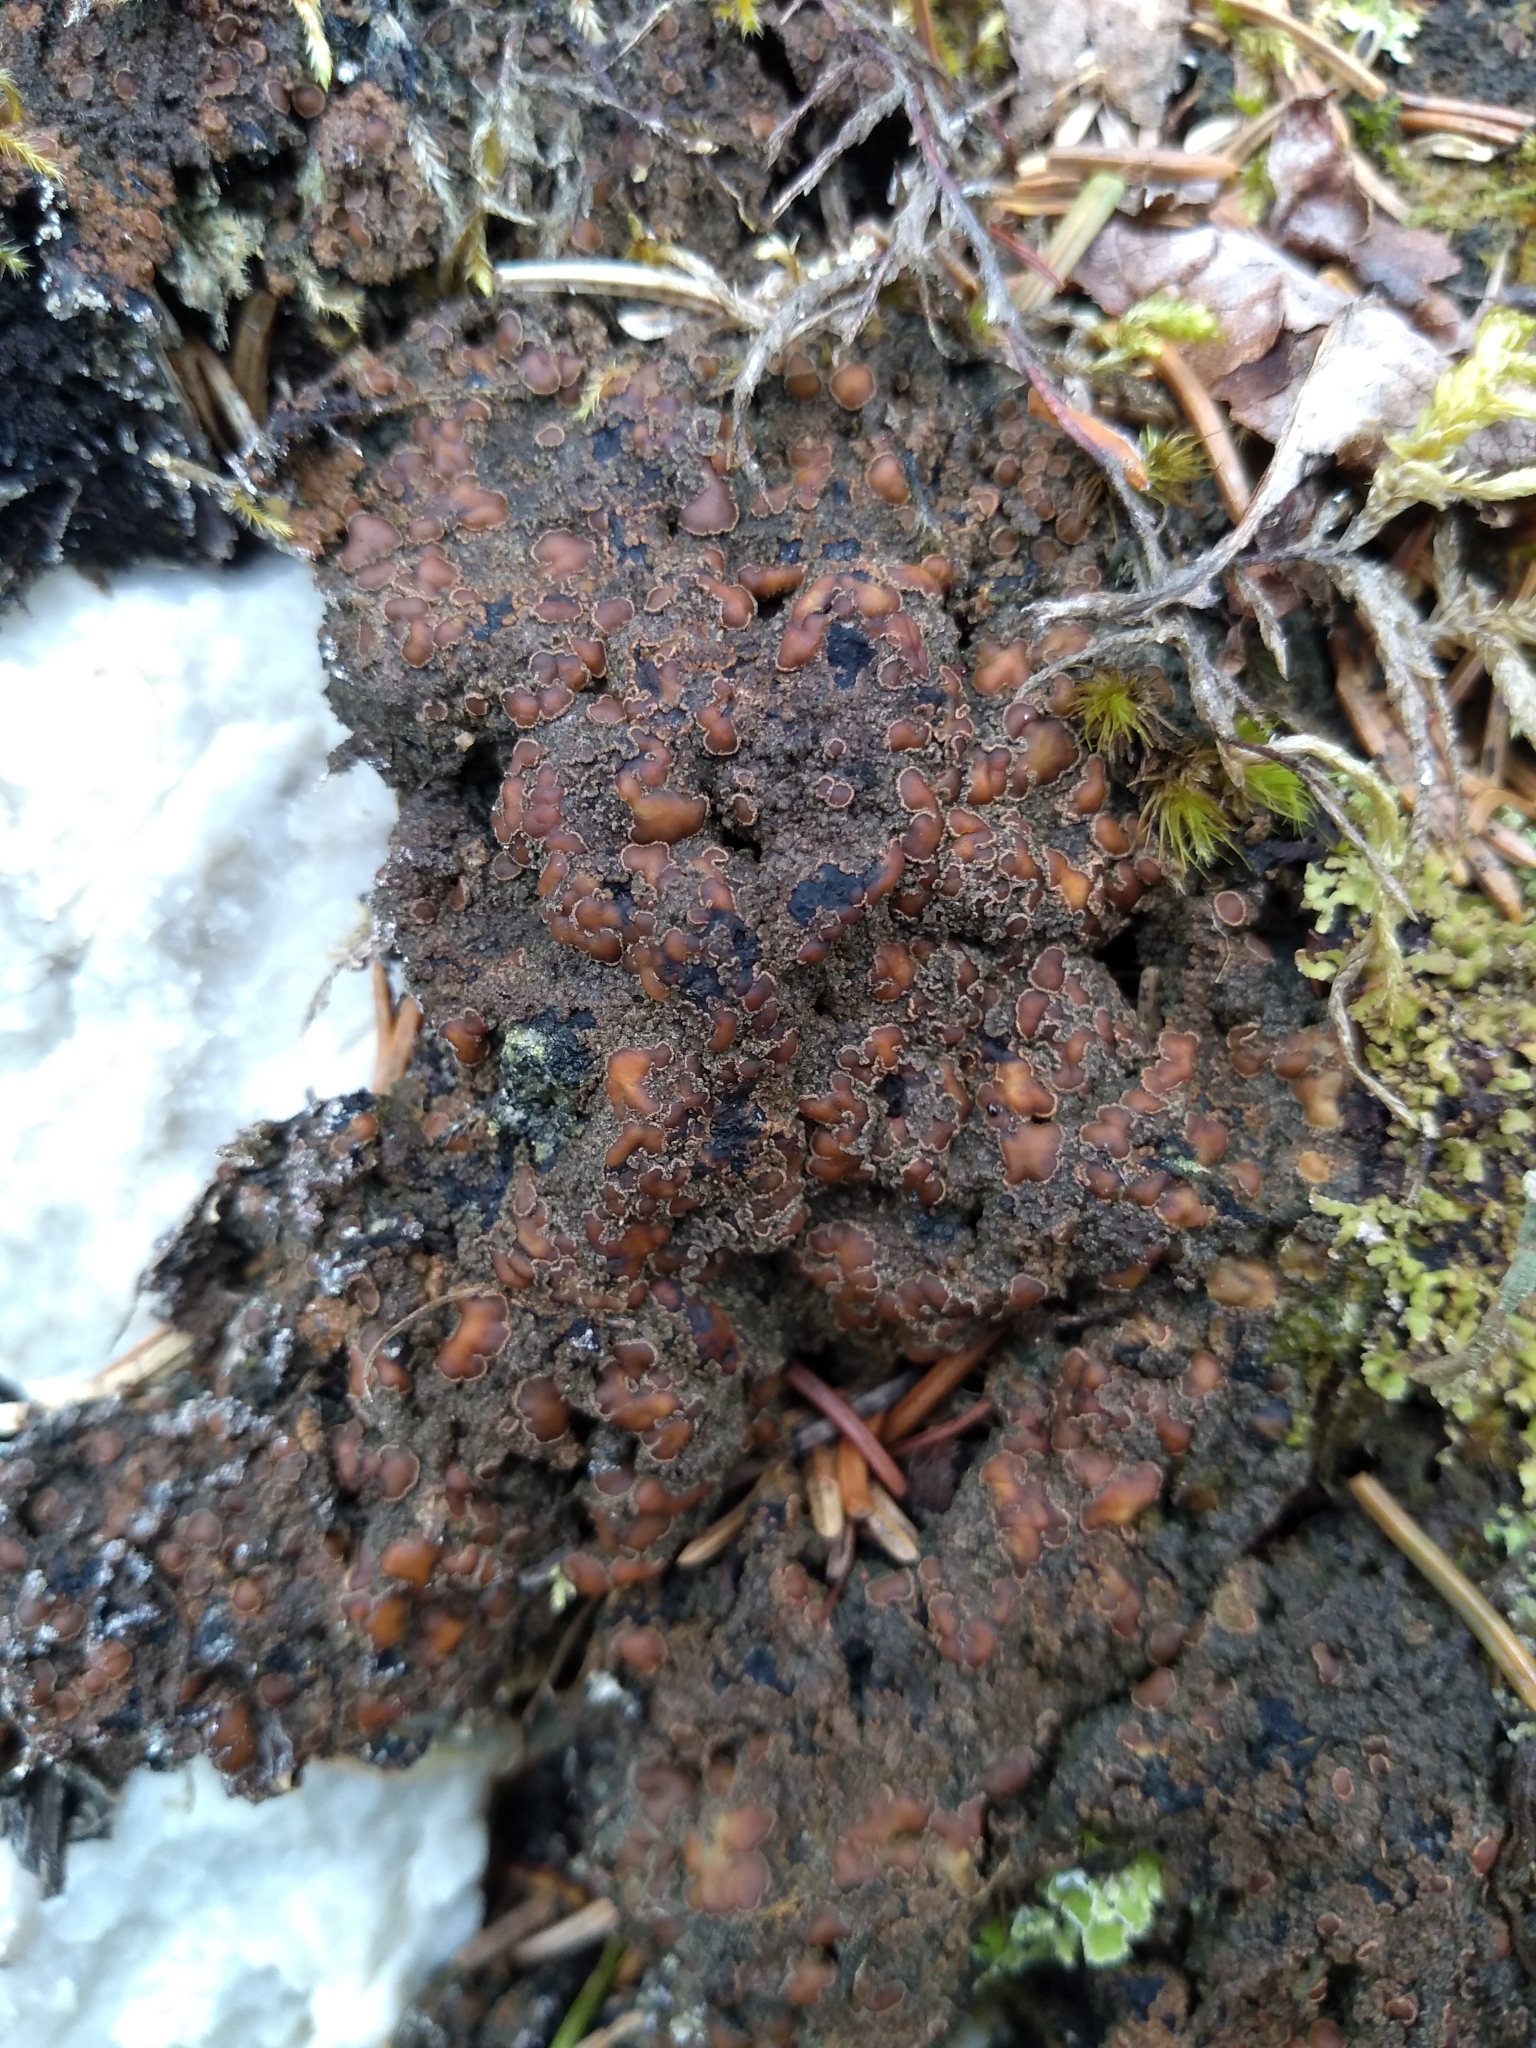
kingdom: Fungi
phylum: Ascomycota
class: Lecanoromycetes
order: Peltigerales
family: Pannariaceae
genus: Protopannaria
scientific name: Protopannaria pezizoides
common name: Brown-gray m oss-shingle
